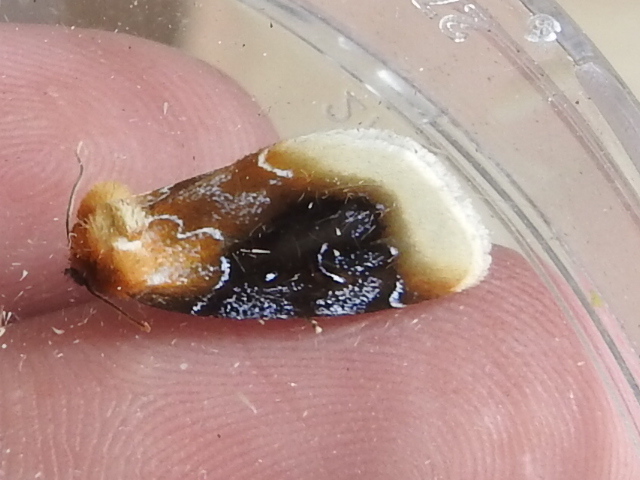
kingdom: Animalia
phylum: Arthropoda
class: Insecta
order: Lepidoptera
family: Noctuidae
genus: Chrysoecia
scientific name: Chrysoecia scira
